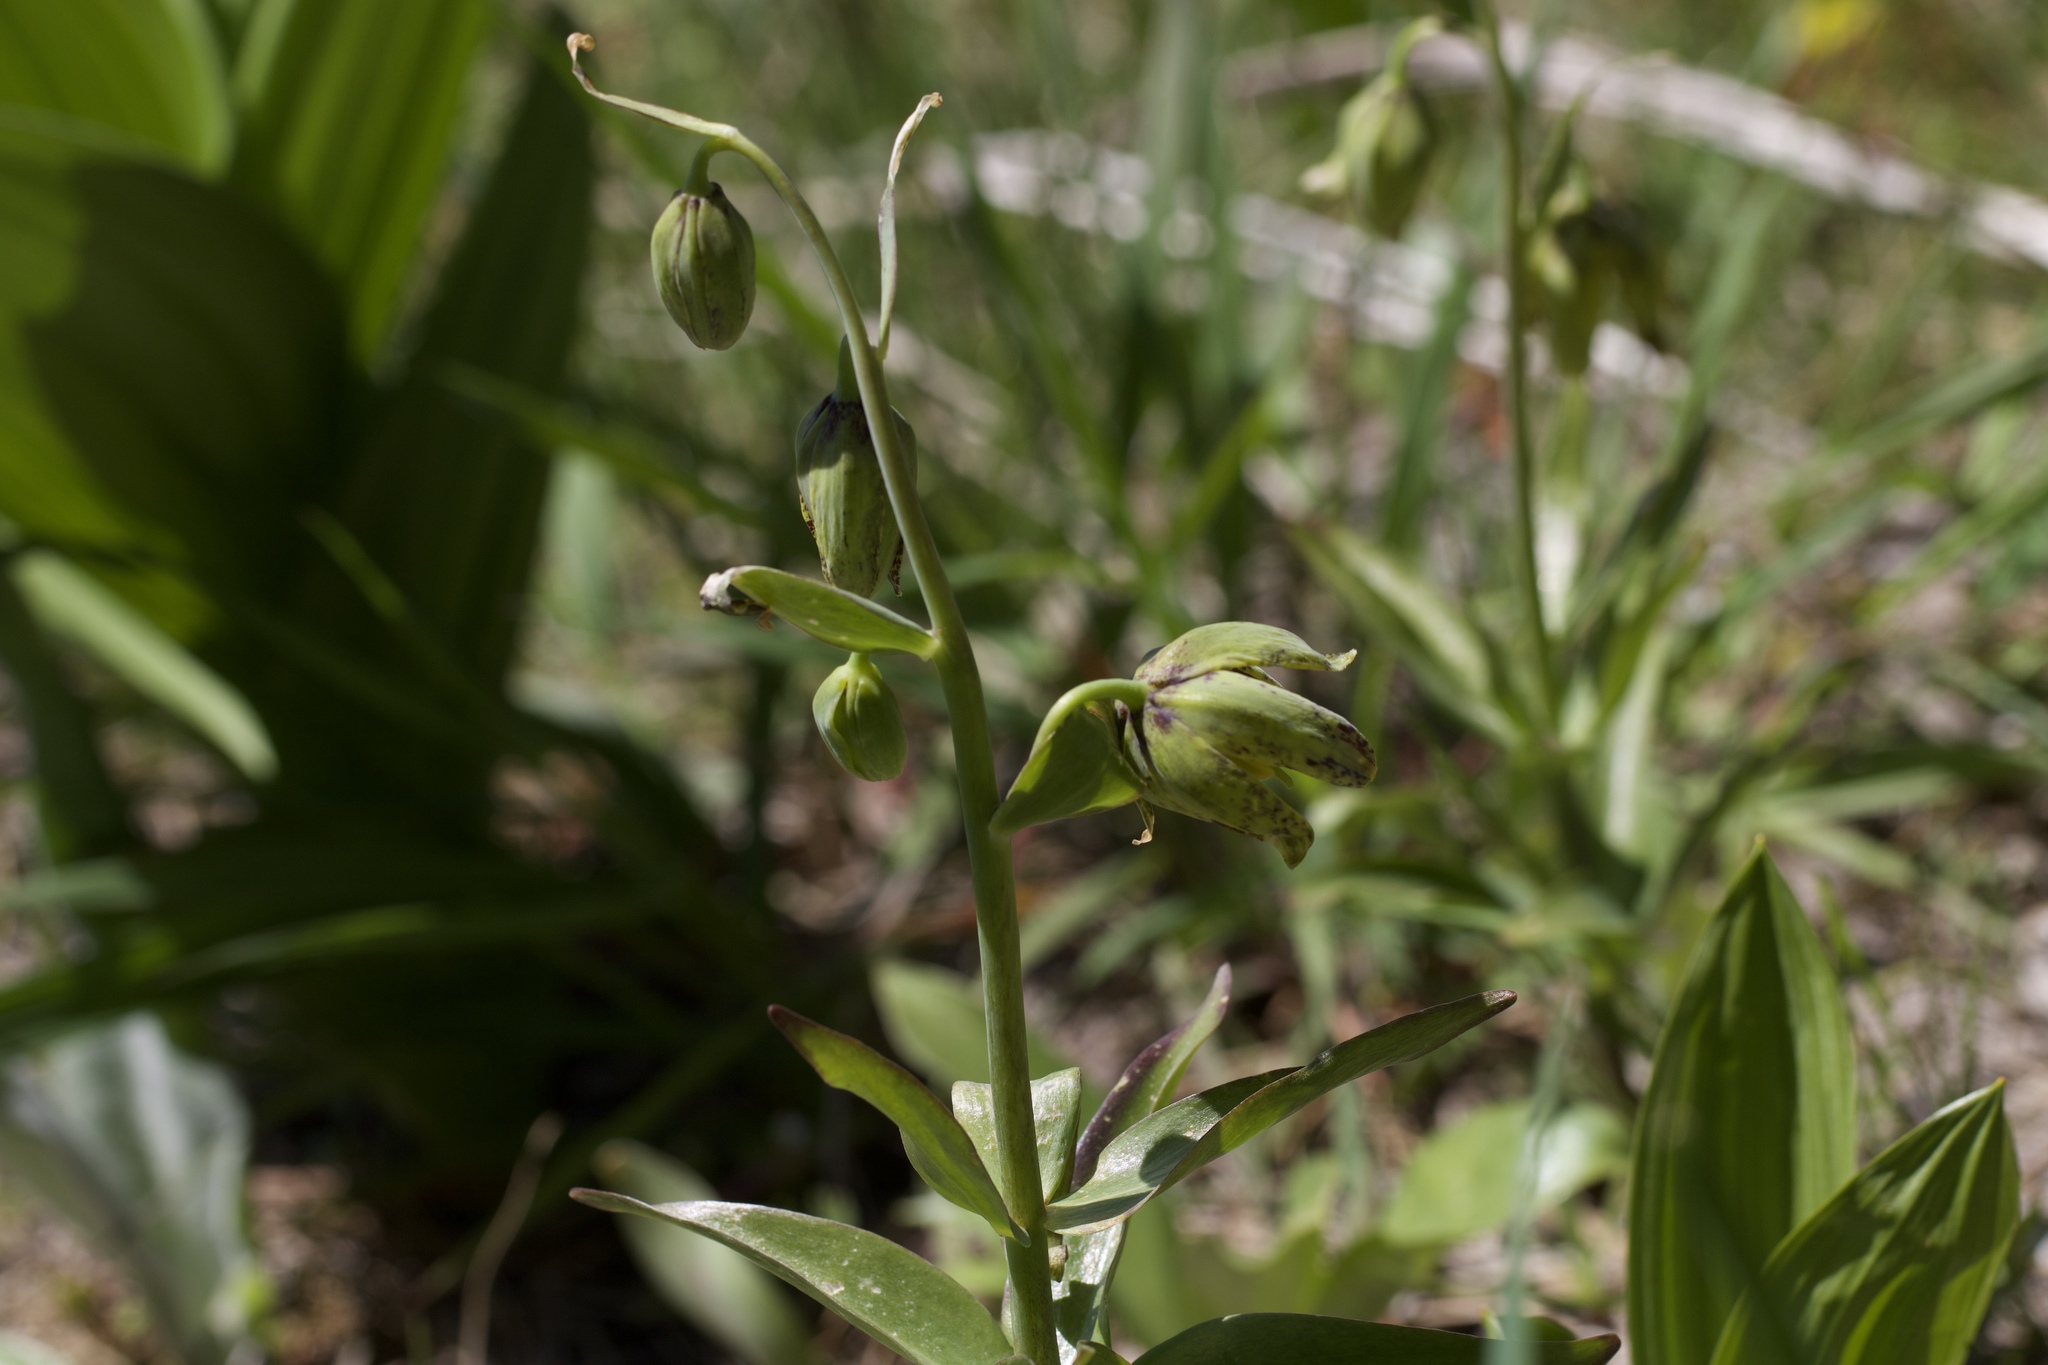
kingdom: Plantae
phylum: Tracheophyta
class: Liliopsida
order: Liliales
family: Liliaceae
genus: Fritillaria
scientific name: Fritillaria affinis
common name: Ojai fritillary
